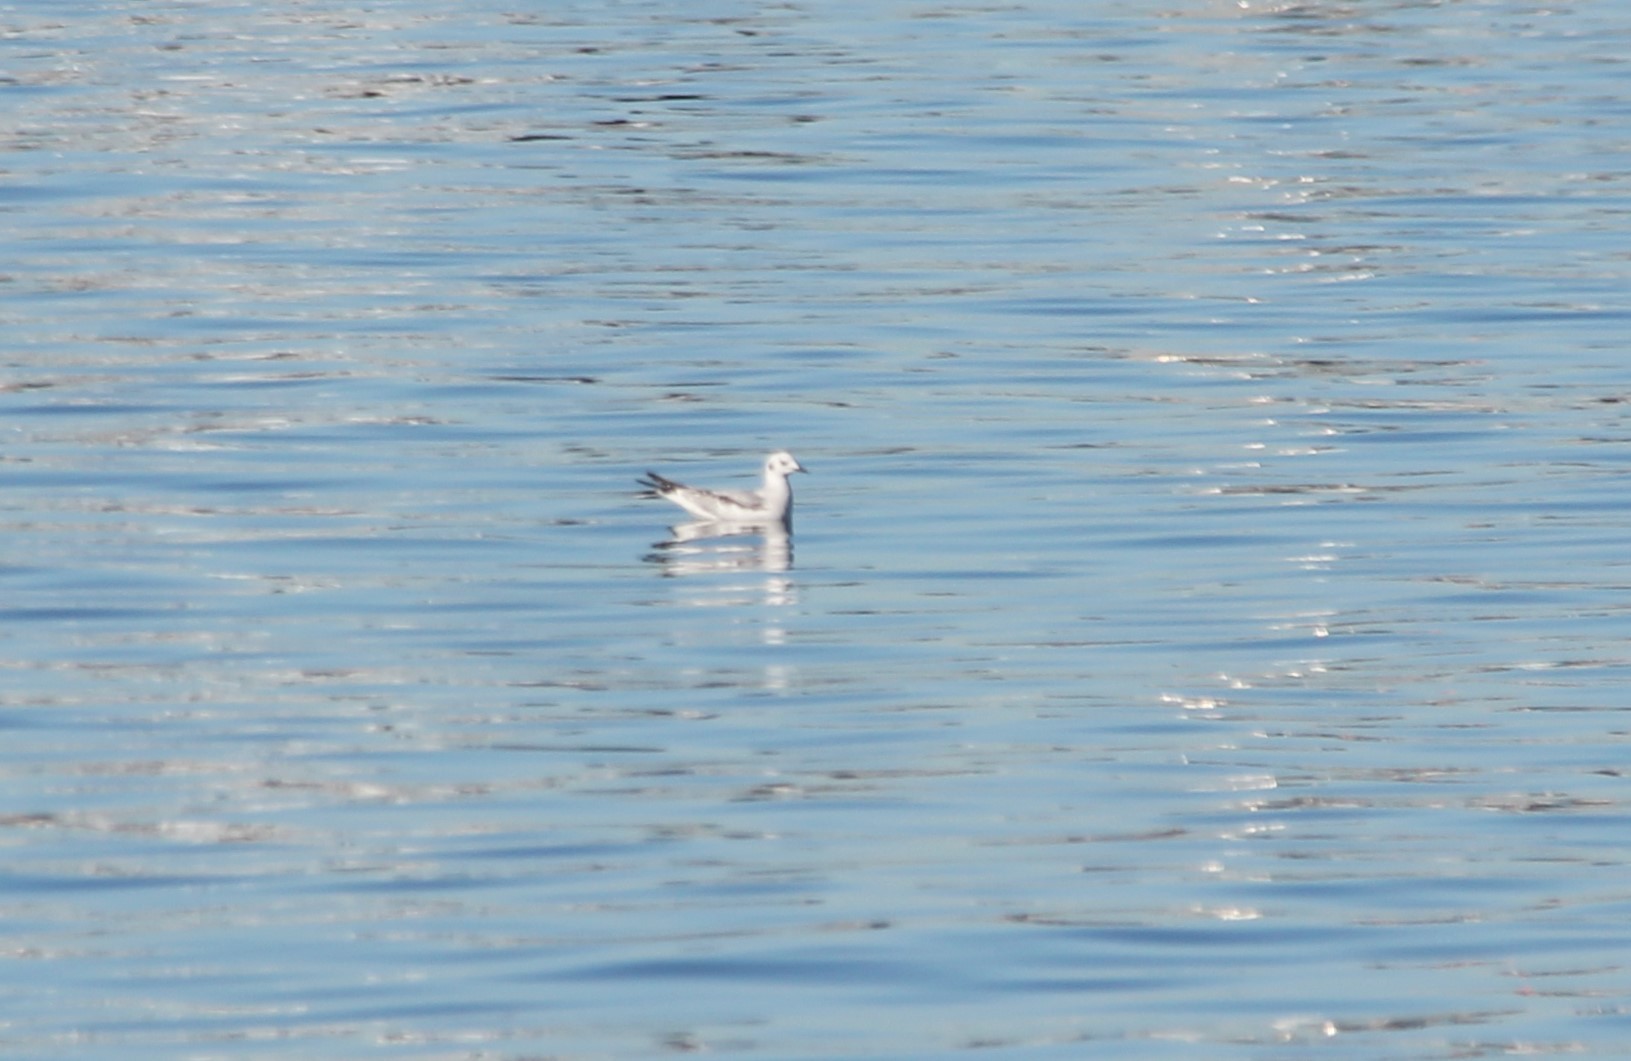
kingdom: Animalia
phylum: Chordata
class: Aves
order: Charadriiformes
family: Laridae
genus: Chroicocephalus
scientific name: Chroicocephalus philadelphia
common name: Bonaparte's gull
